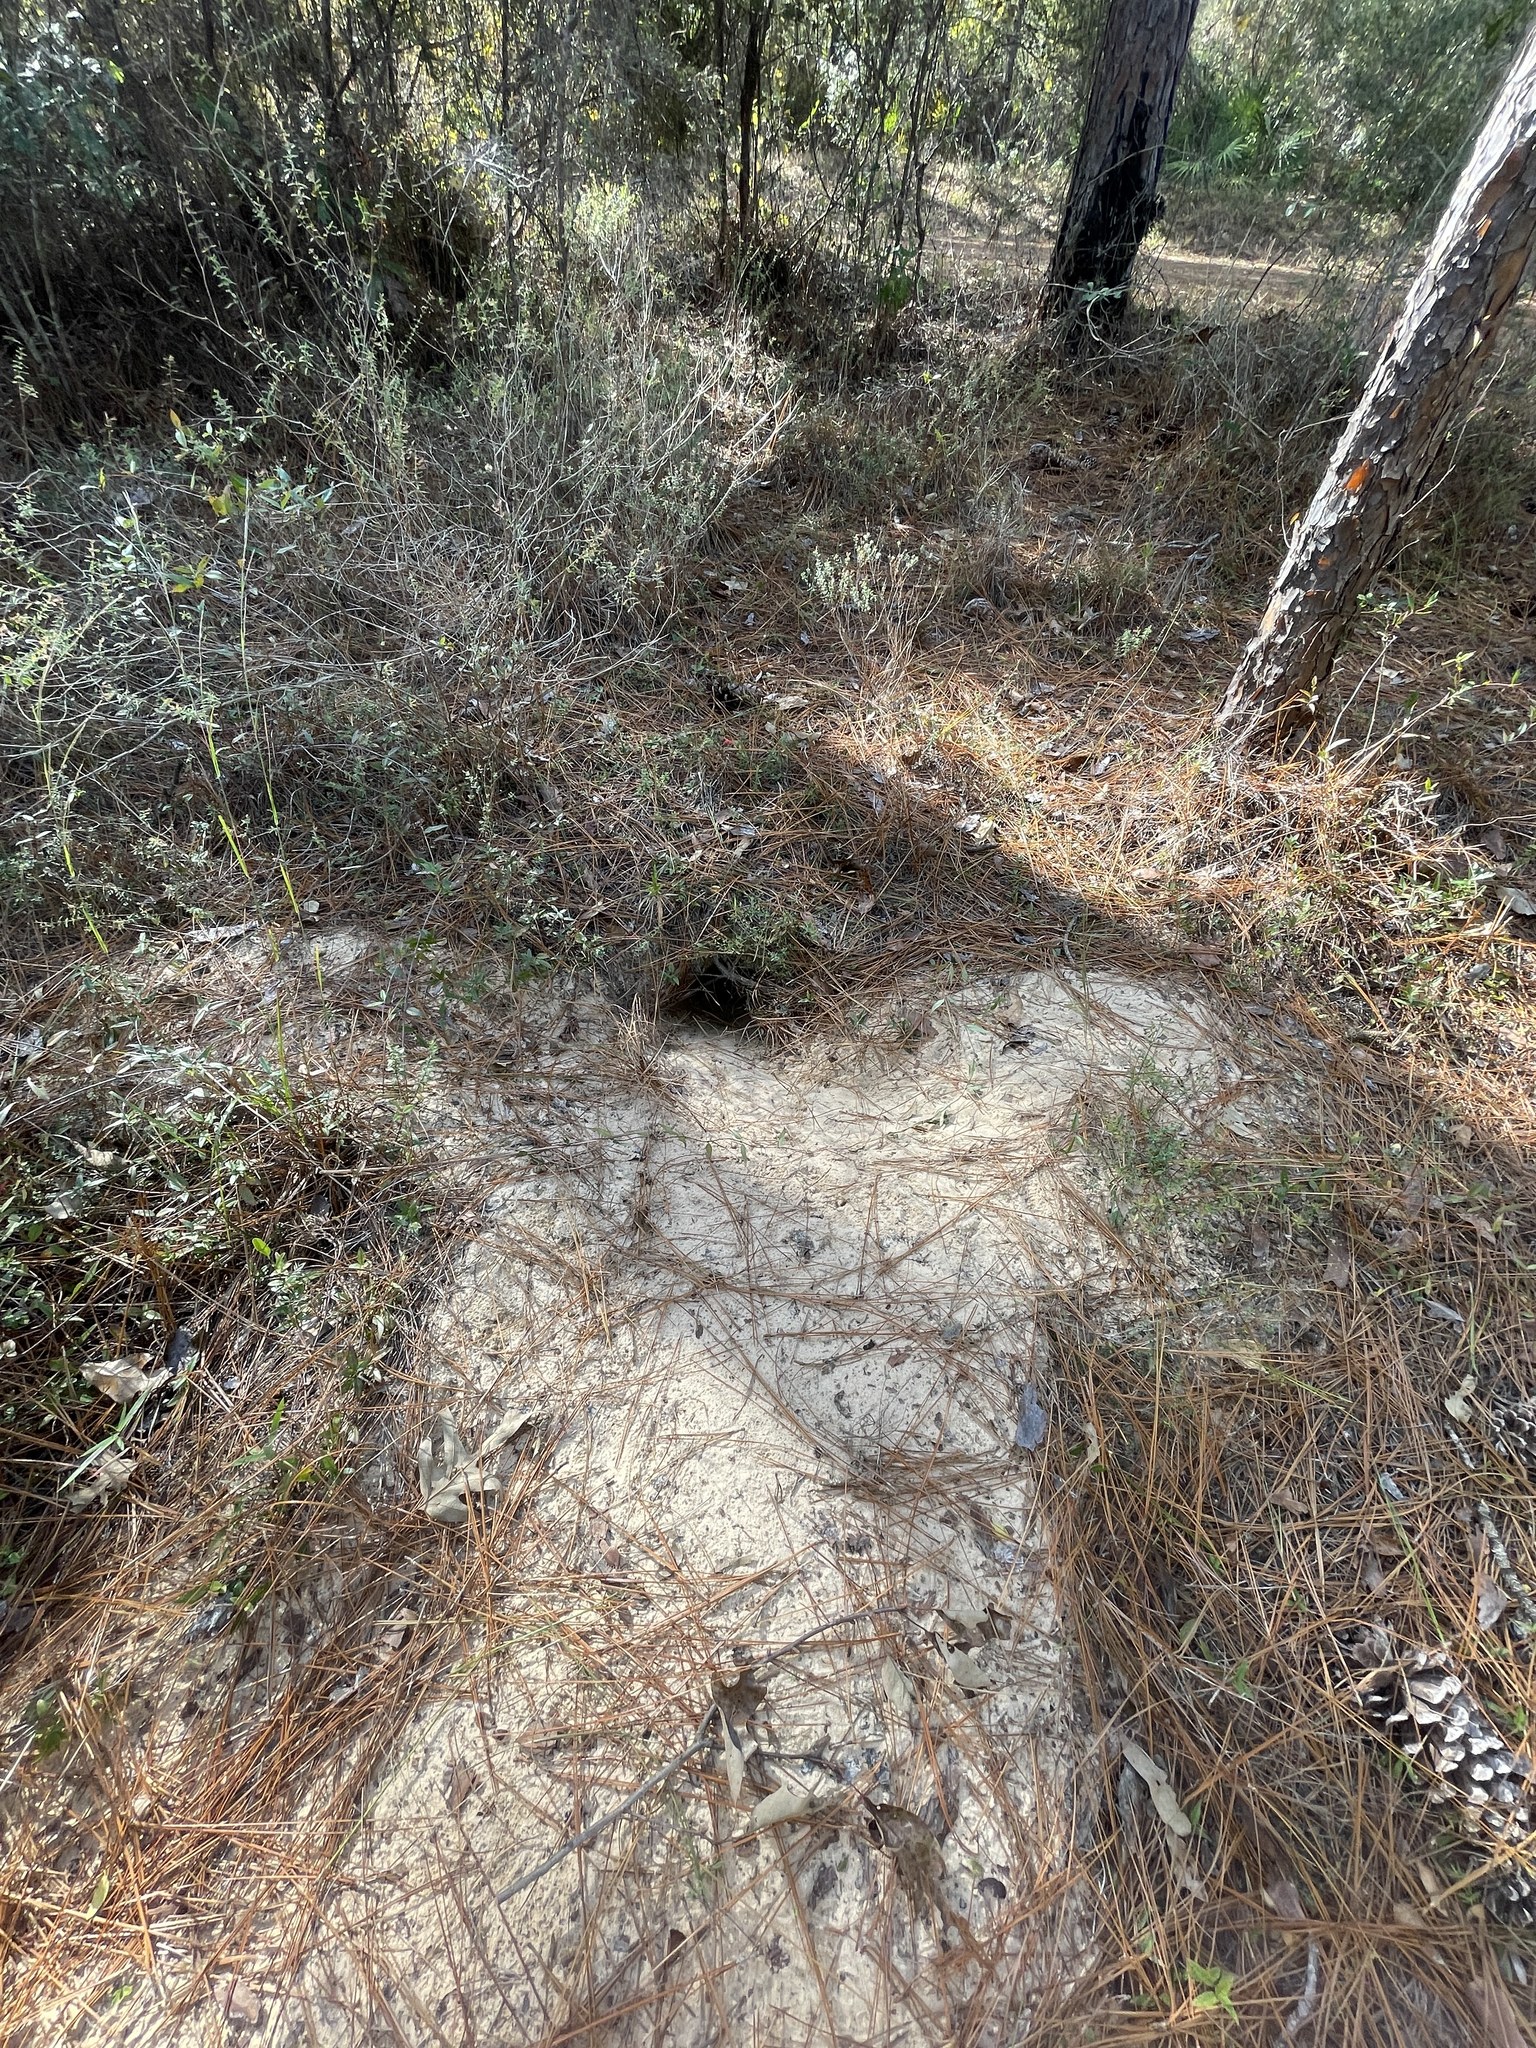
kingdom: Animalia
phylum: Chordata
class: Testudines
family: Testudinidae
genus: Gopherus
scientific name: Gopherus polyphemus
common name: Florida gopher tortoise
